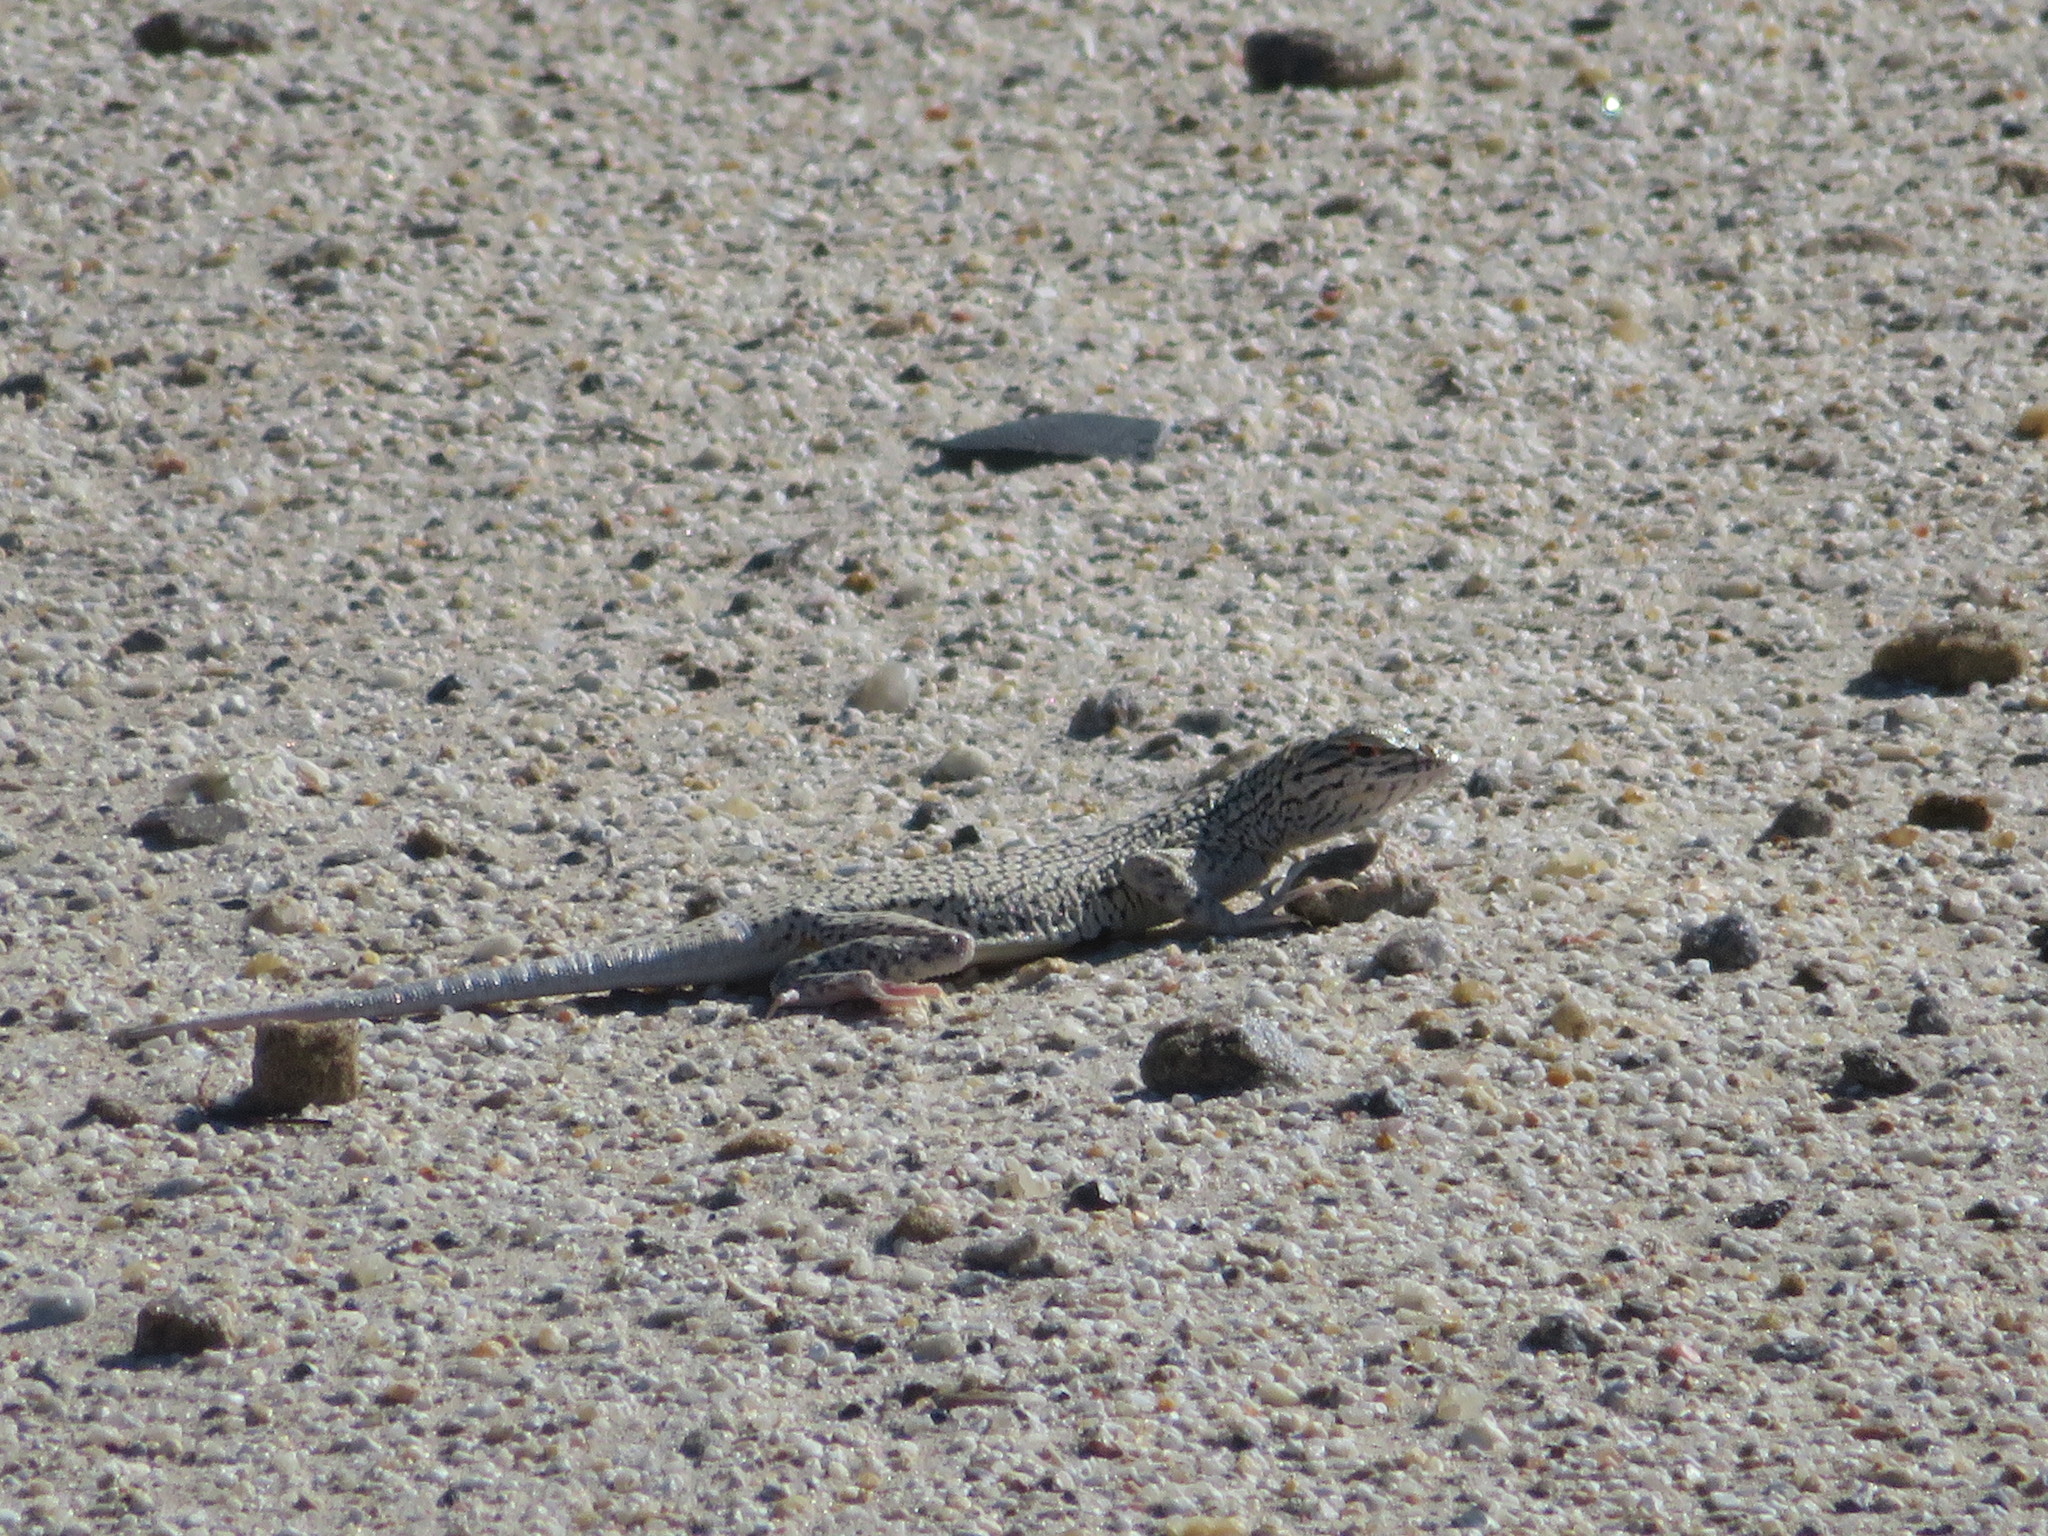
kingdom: Animalia
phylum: Chordata
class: Squamata
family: Phrynosomatidae
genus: Uma
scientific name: Uma notata
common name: Colorado desert fringe-toed lizard
